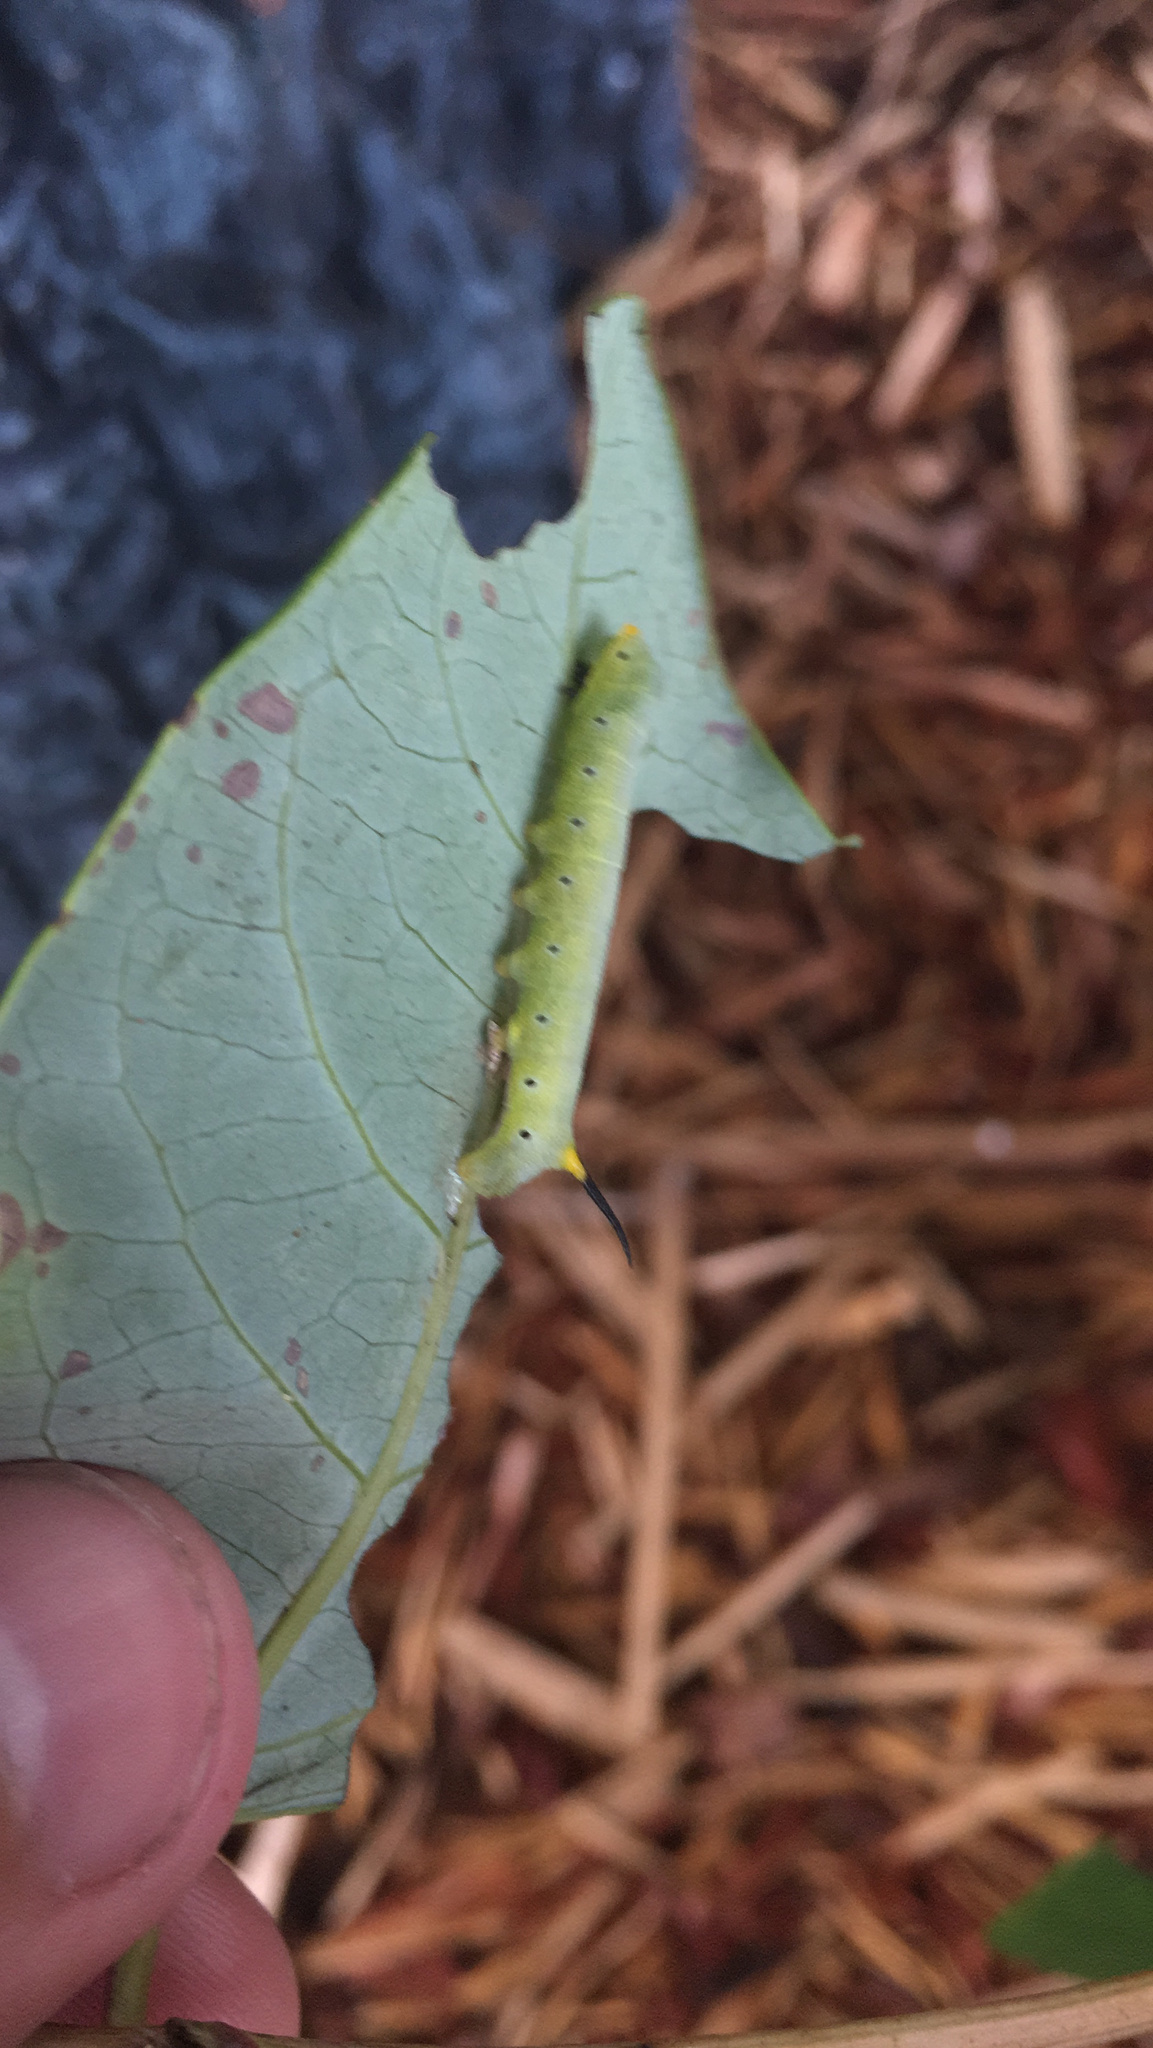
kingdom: Animalia
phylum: Arthropoda
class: Insecta
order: Lepidoptera
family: Sphingidae
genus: Hemaris
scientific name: Hemaris diffinis
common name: Bumblebee moth
